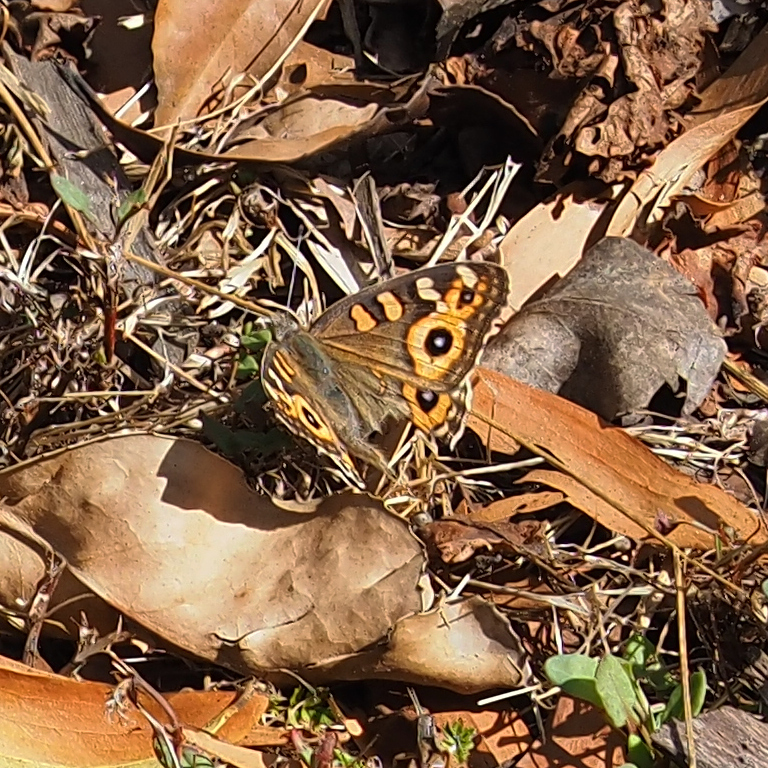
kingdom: Animalia
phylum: Arthropoda
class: Insecta
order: Lepidoptera
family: Nymphalidae
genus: Junonia
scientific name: Junonia villida
